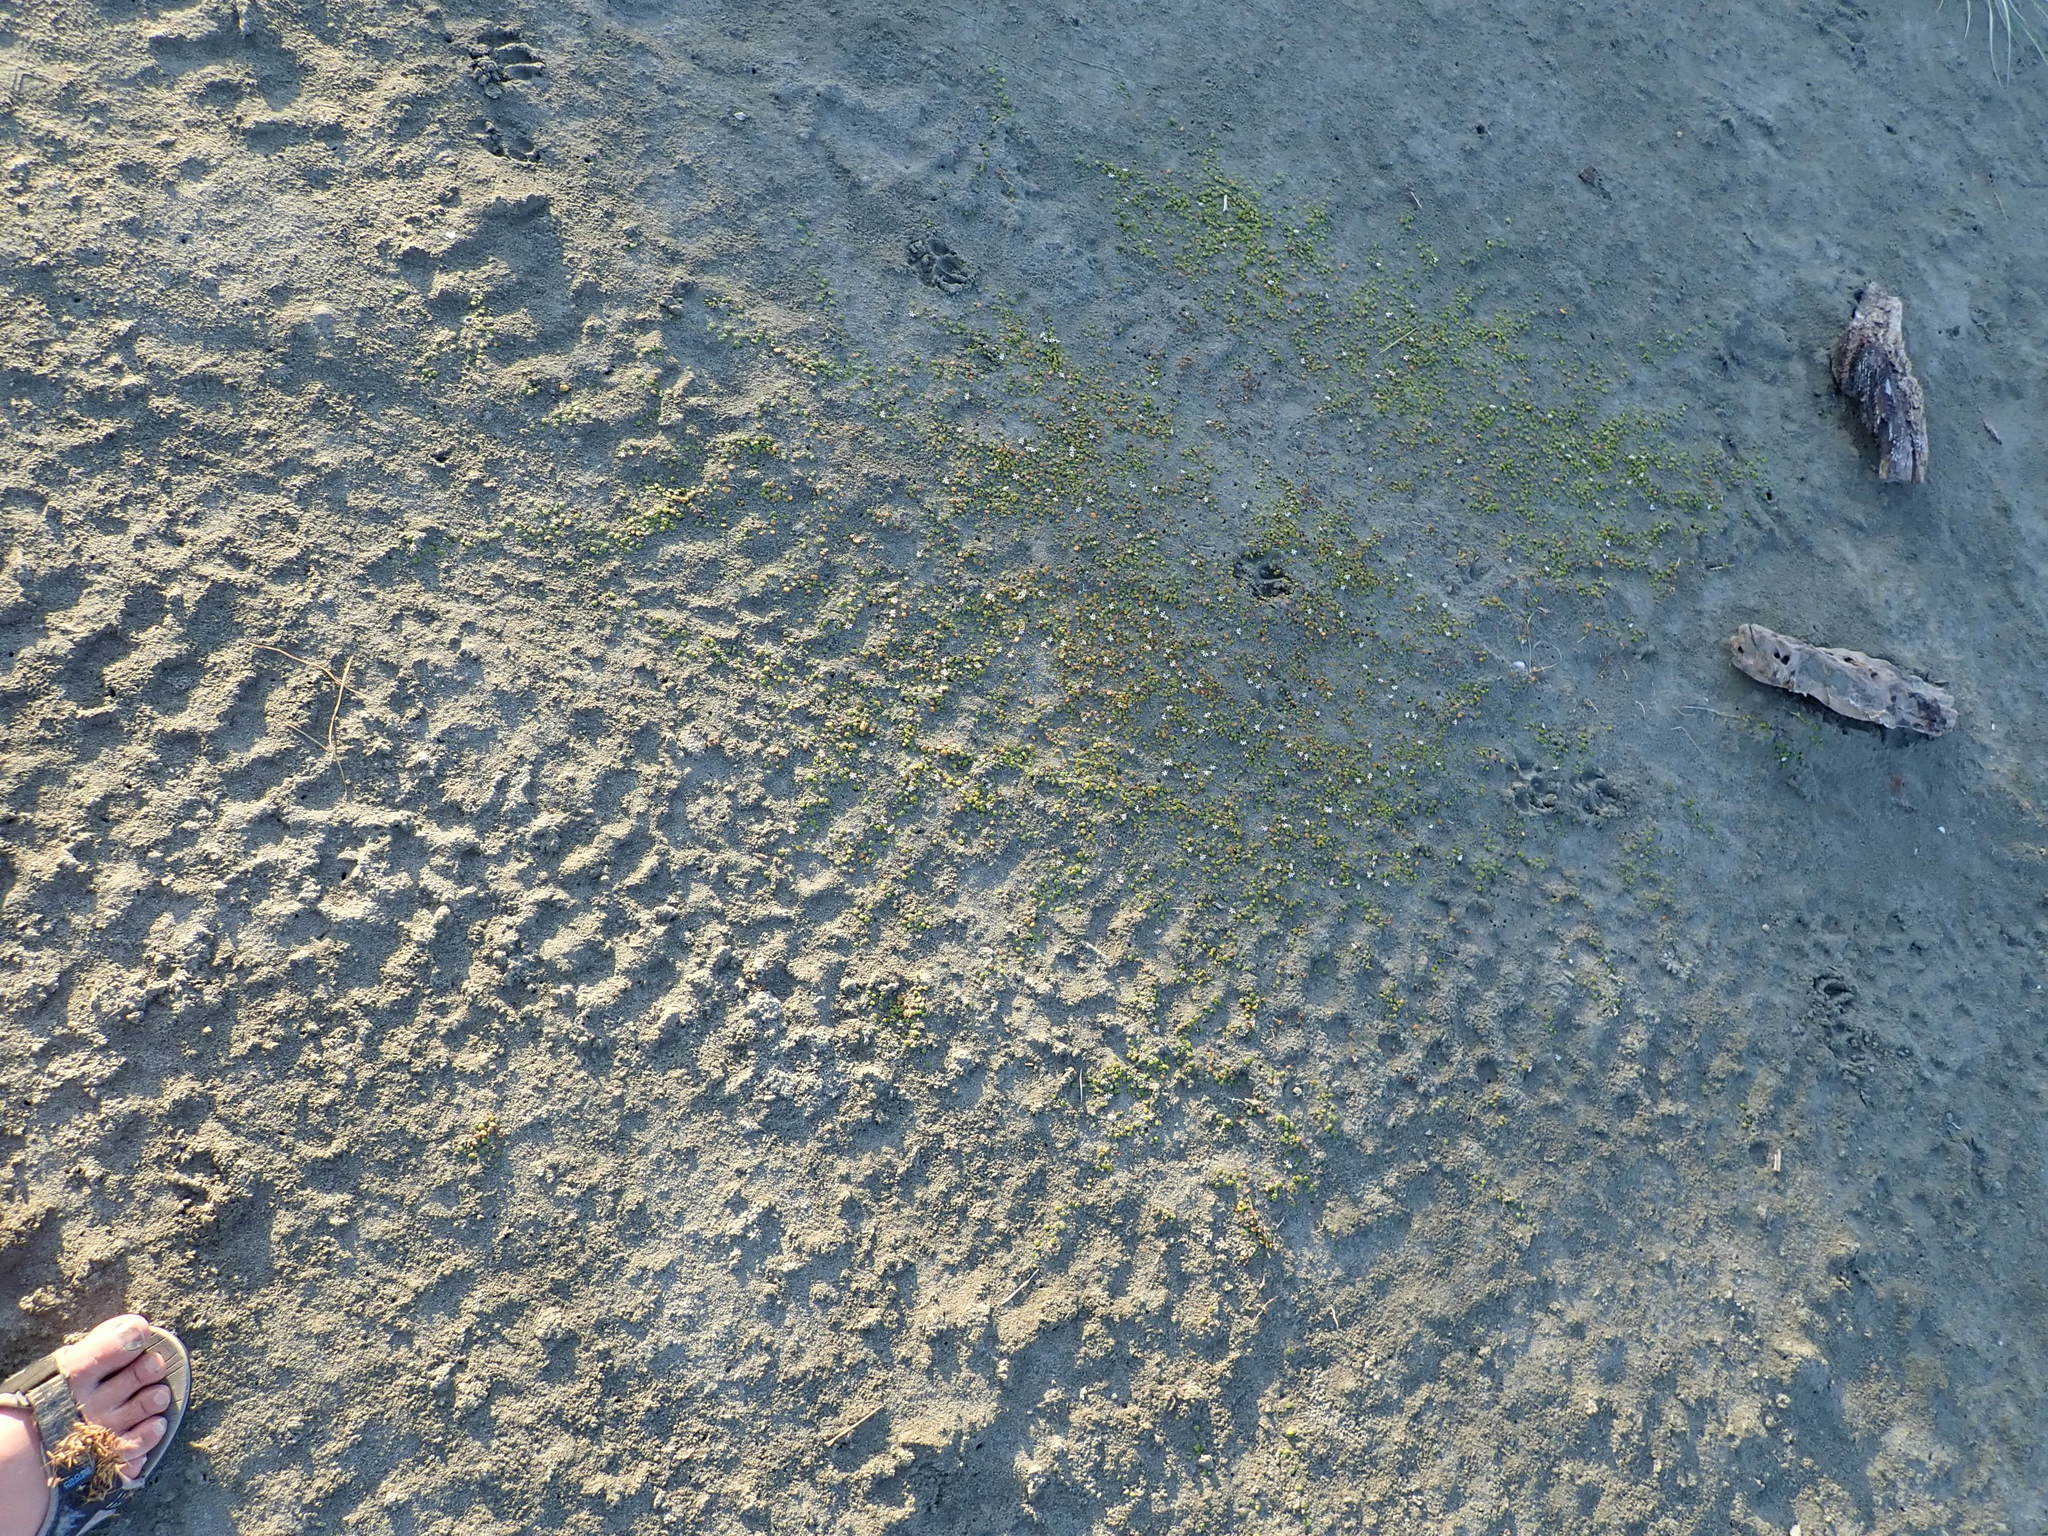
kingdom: Plantae
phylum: Tracheophyta
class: Magnoliopsida
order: Asterales
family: Goodeniaceae
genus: Goodenia
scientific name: Goodenia heenanii
